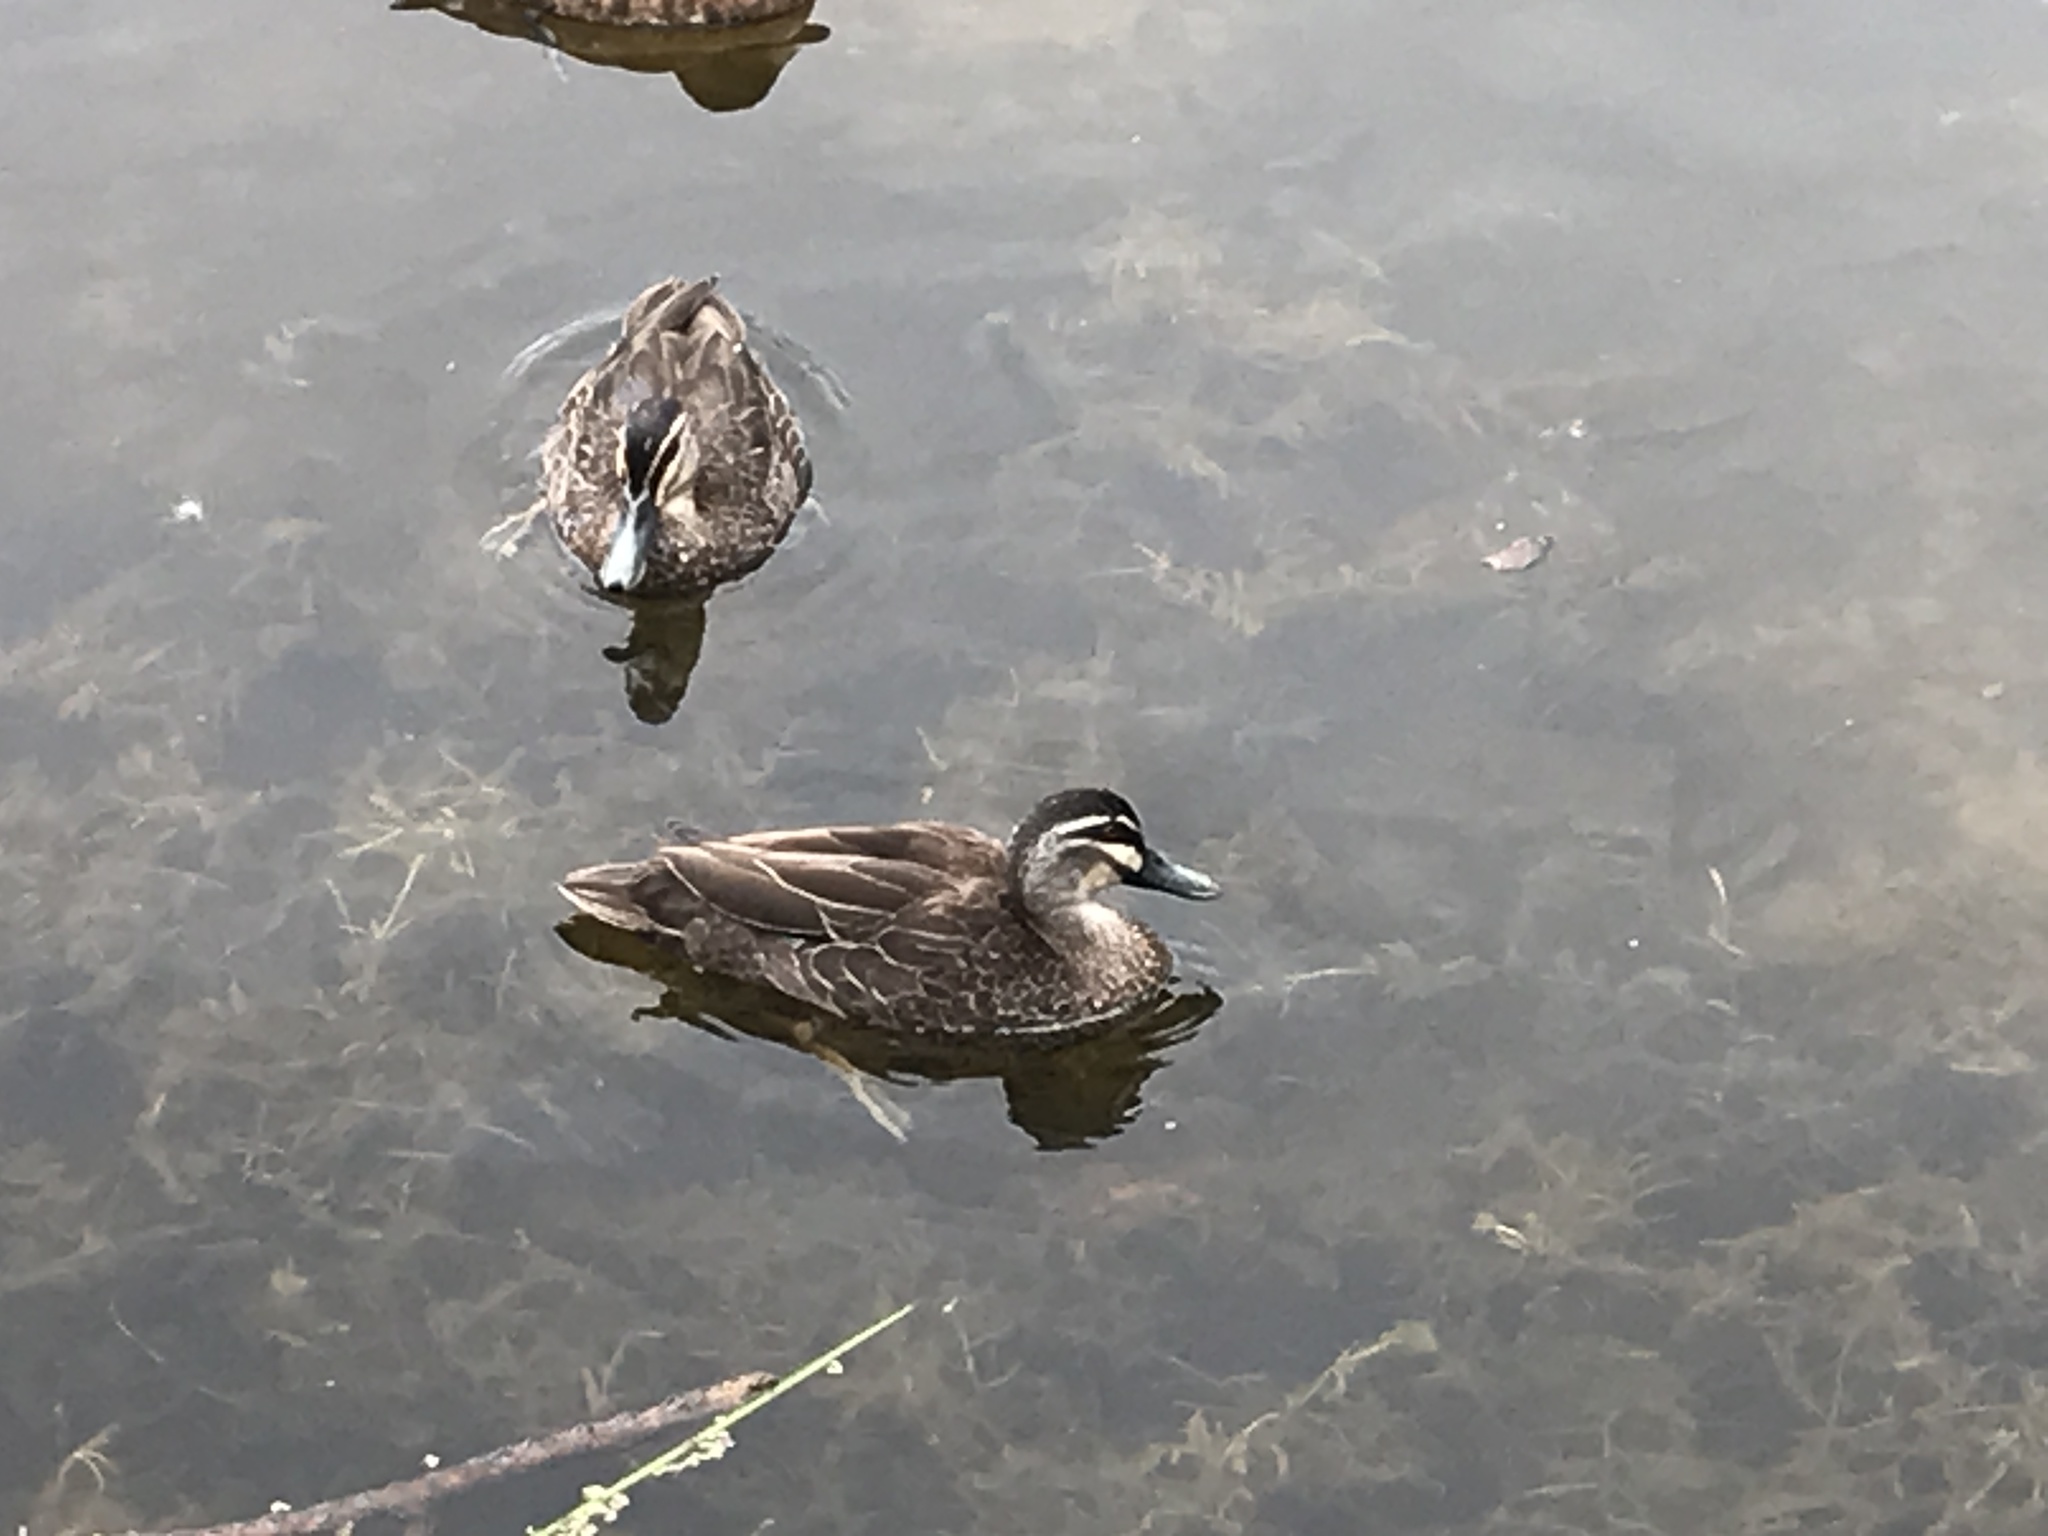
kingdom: Animalia
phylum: Chordata
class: Aves
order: Anseriformes
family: Anatidae
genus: Anas
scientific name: Anas superciliosa
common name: Pacific black duck
